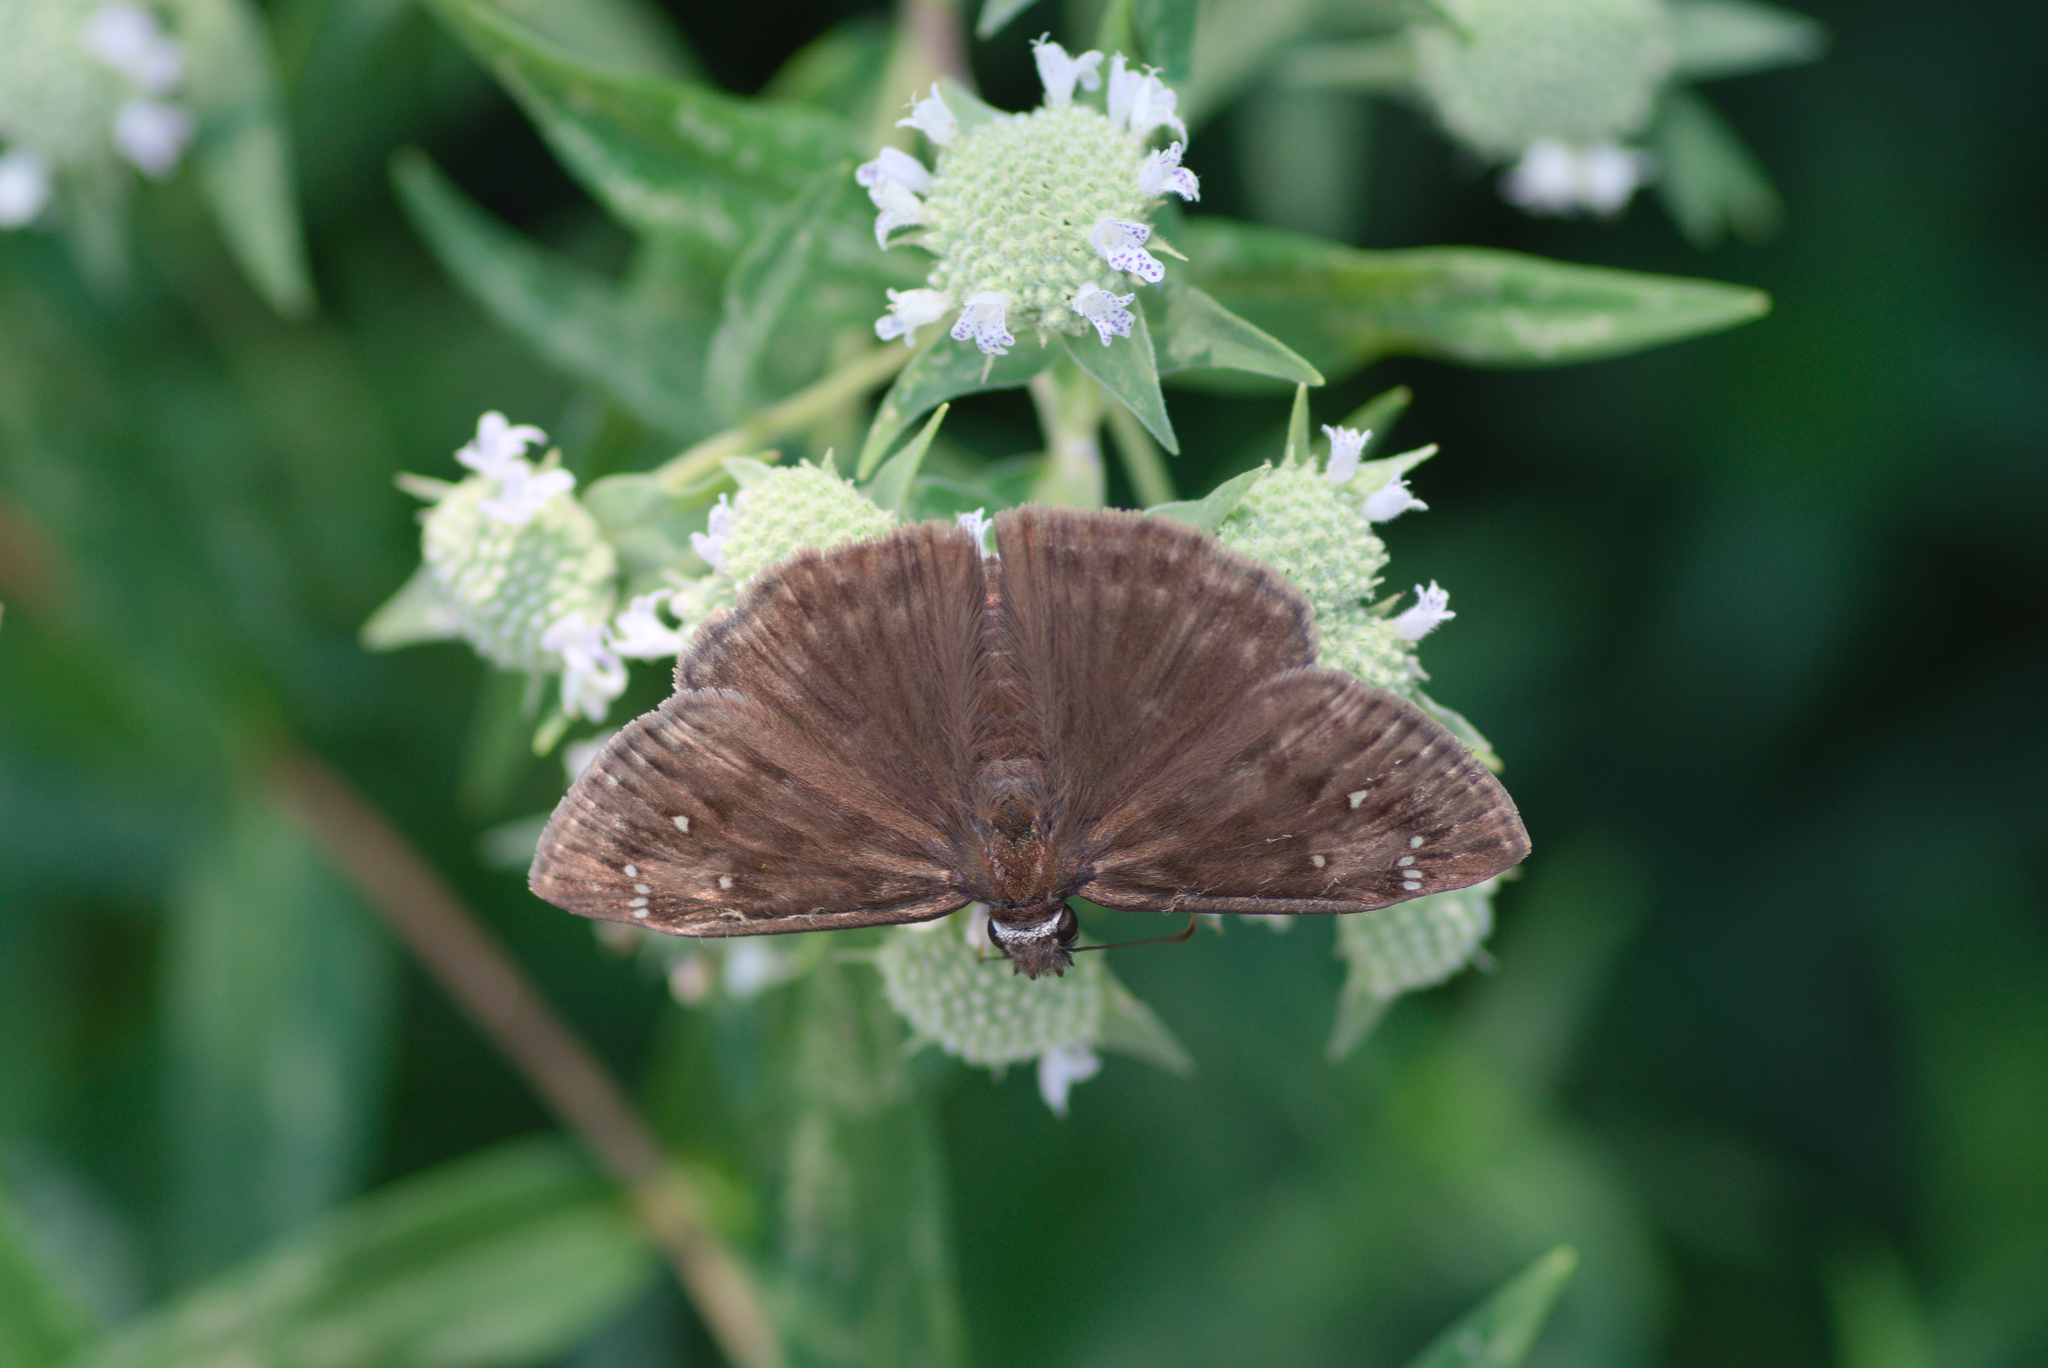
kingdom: Animalia
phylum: Arthropoda
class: Insecta
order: Lepidoptera
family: Hesperiidae
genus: Erynnis
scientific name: Erynnis horatius
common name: Horace's duskywing
